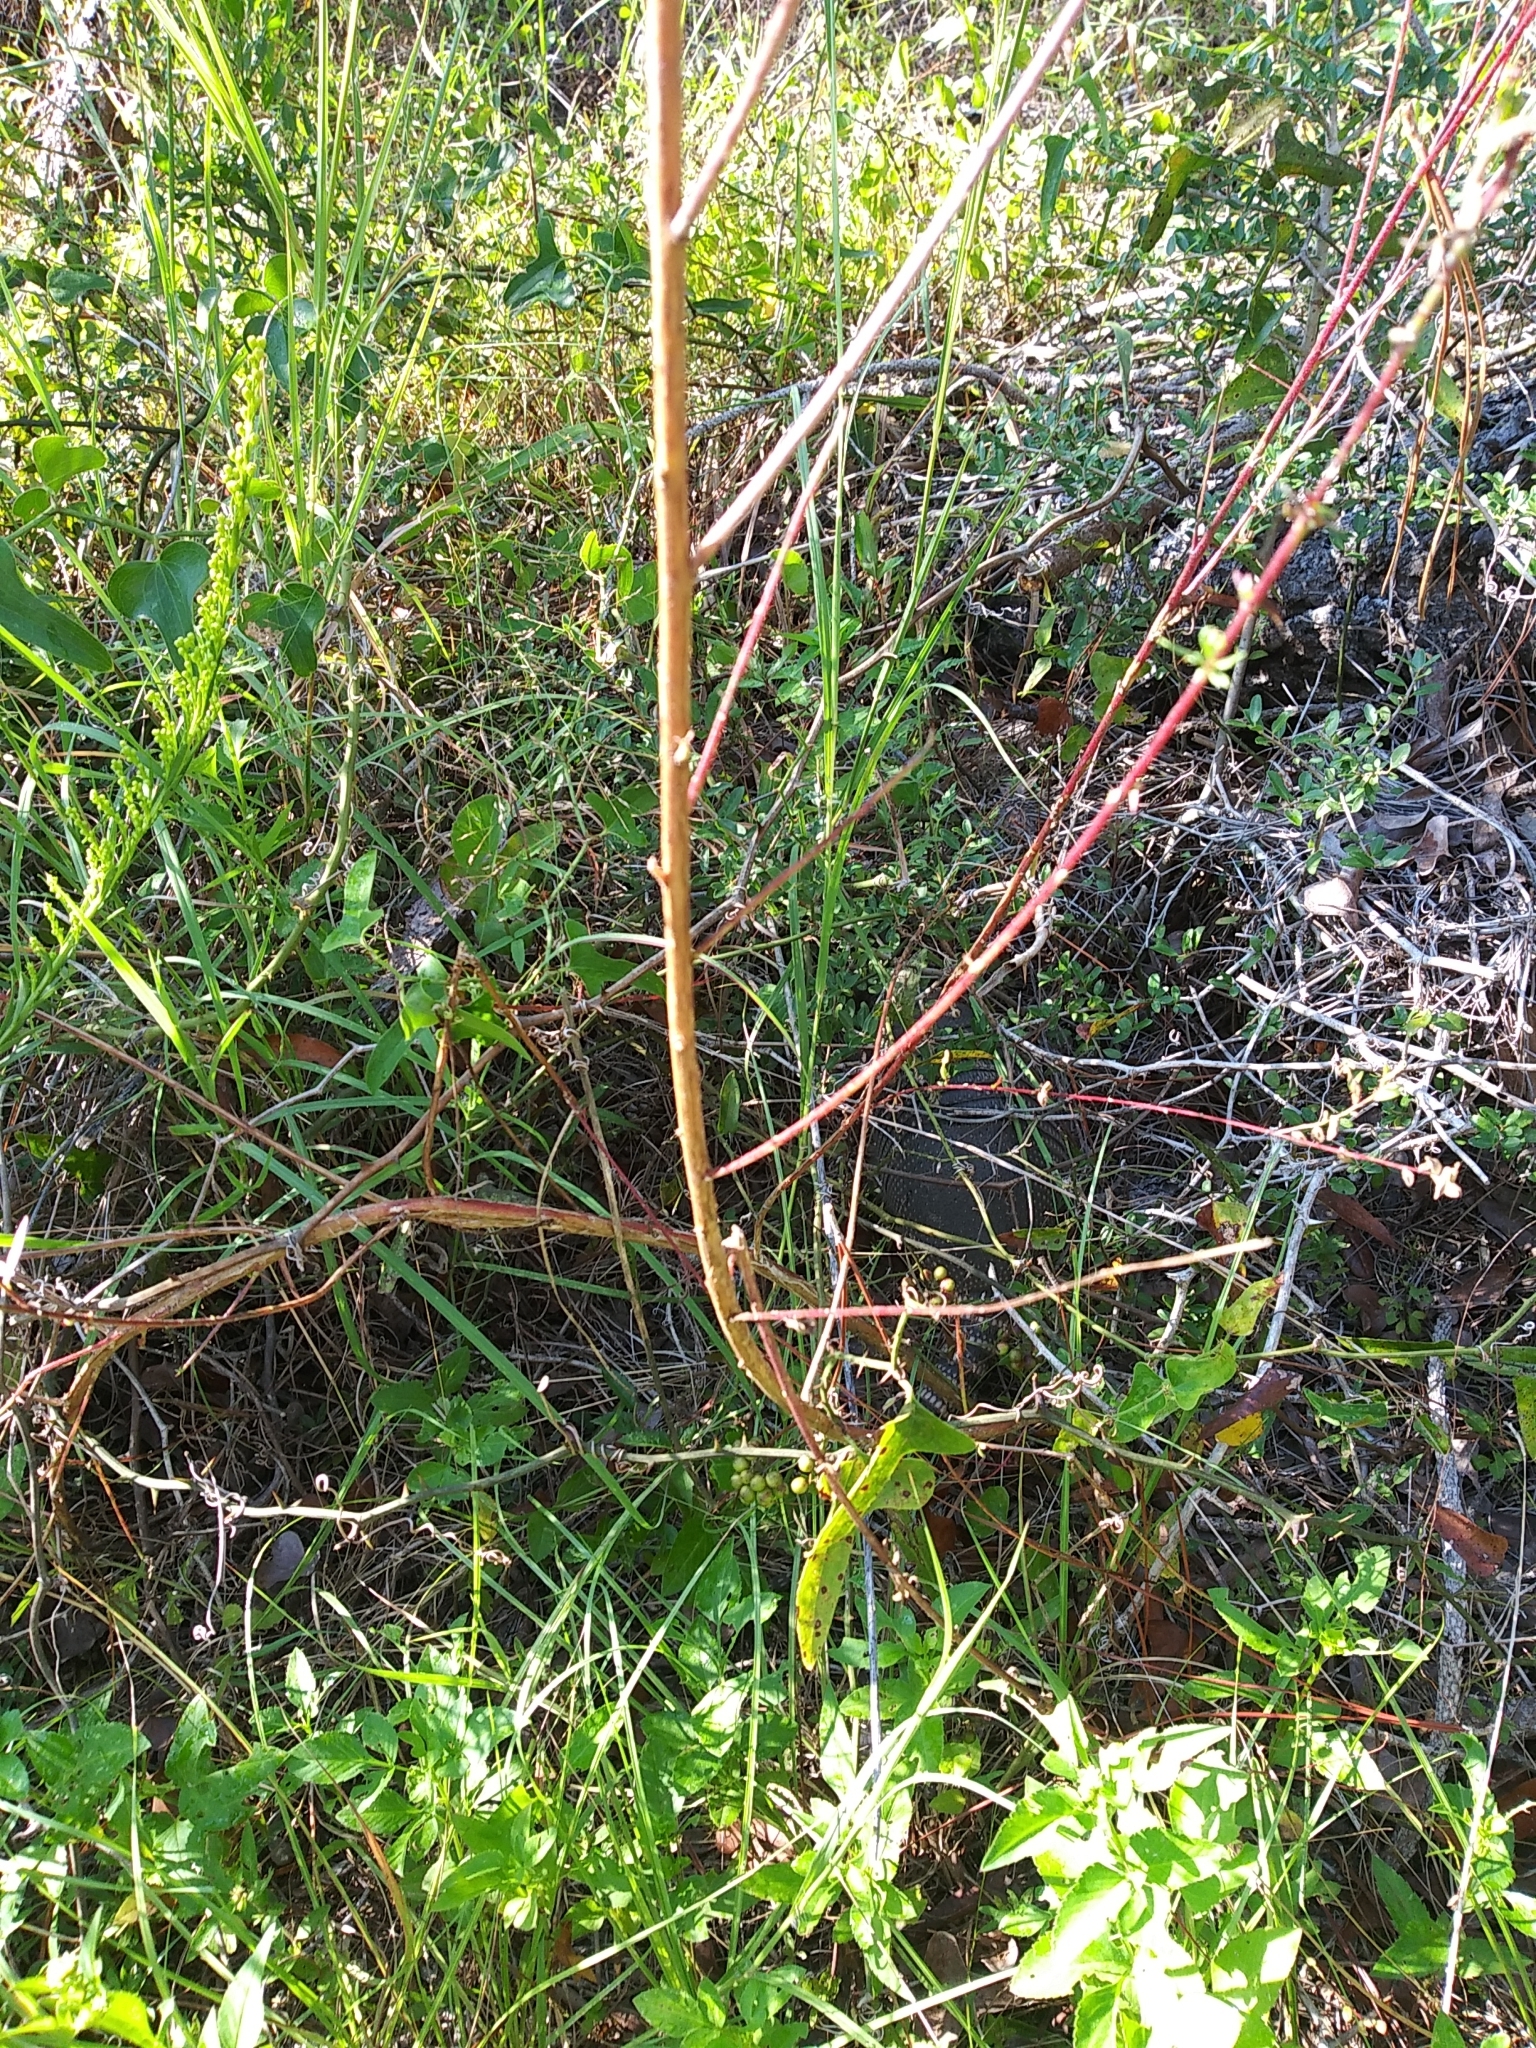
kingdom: Animalia
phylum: Chordata
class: Mammalia
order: Cingulata
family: Dasypodidae
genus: Dasypus
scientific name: Dasypus novemcinctus
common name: Nine-banded armadillo
